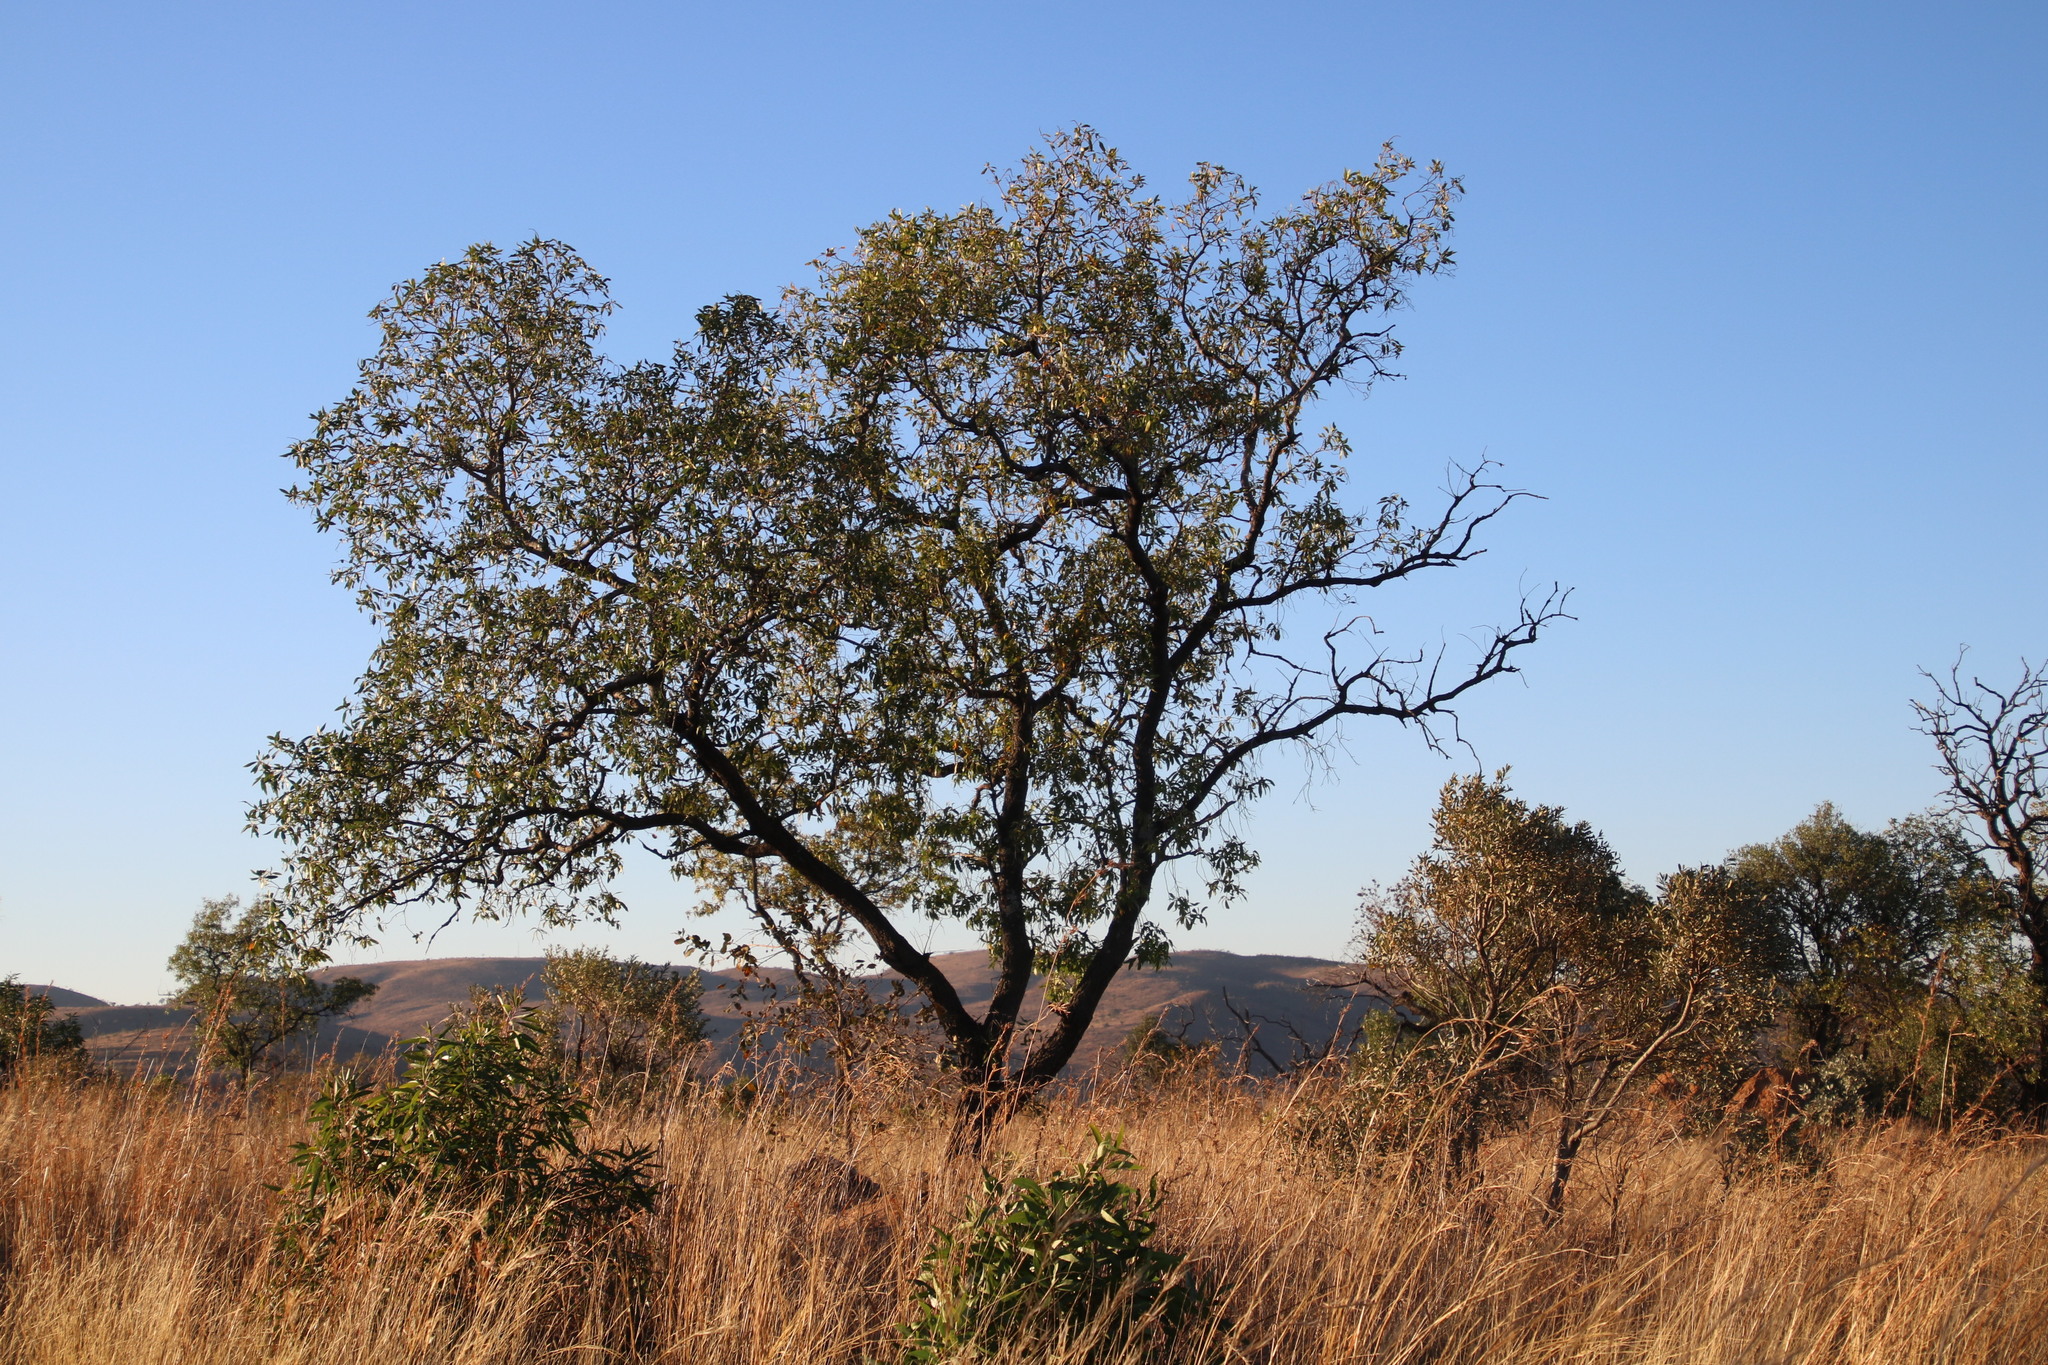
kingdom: Plantae
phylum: Tracheophyta
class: Magnoliopsida
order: Proteales
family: Proteaceae
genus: Faurea
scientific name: Faurea saligna
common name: African bean
